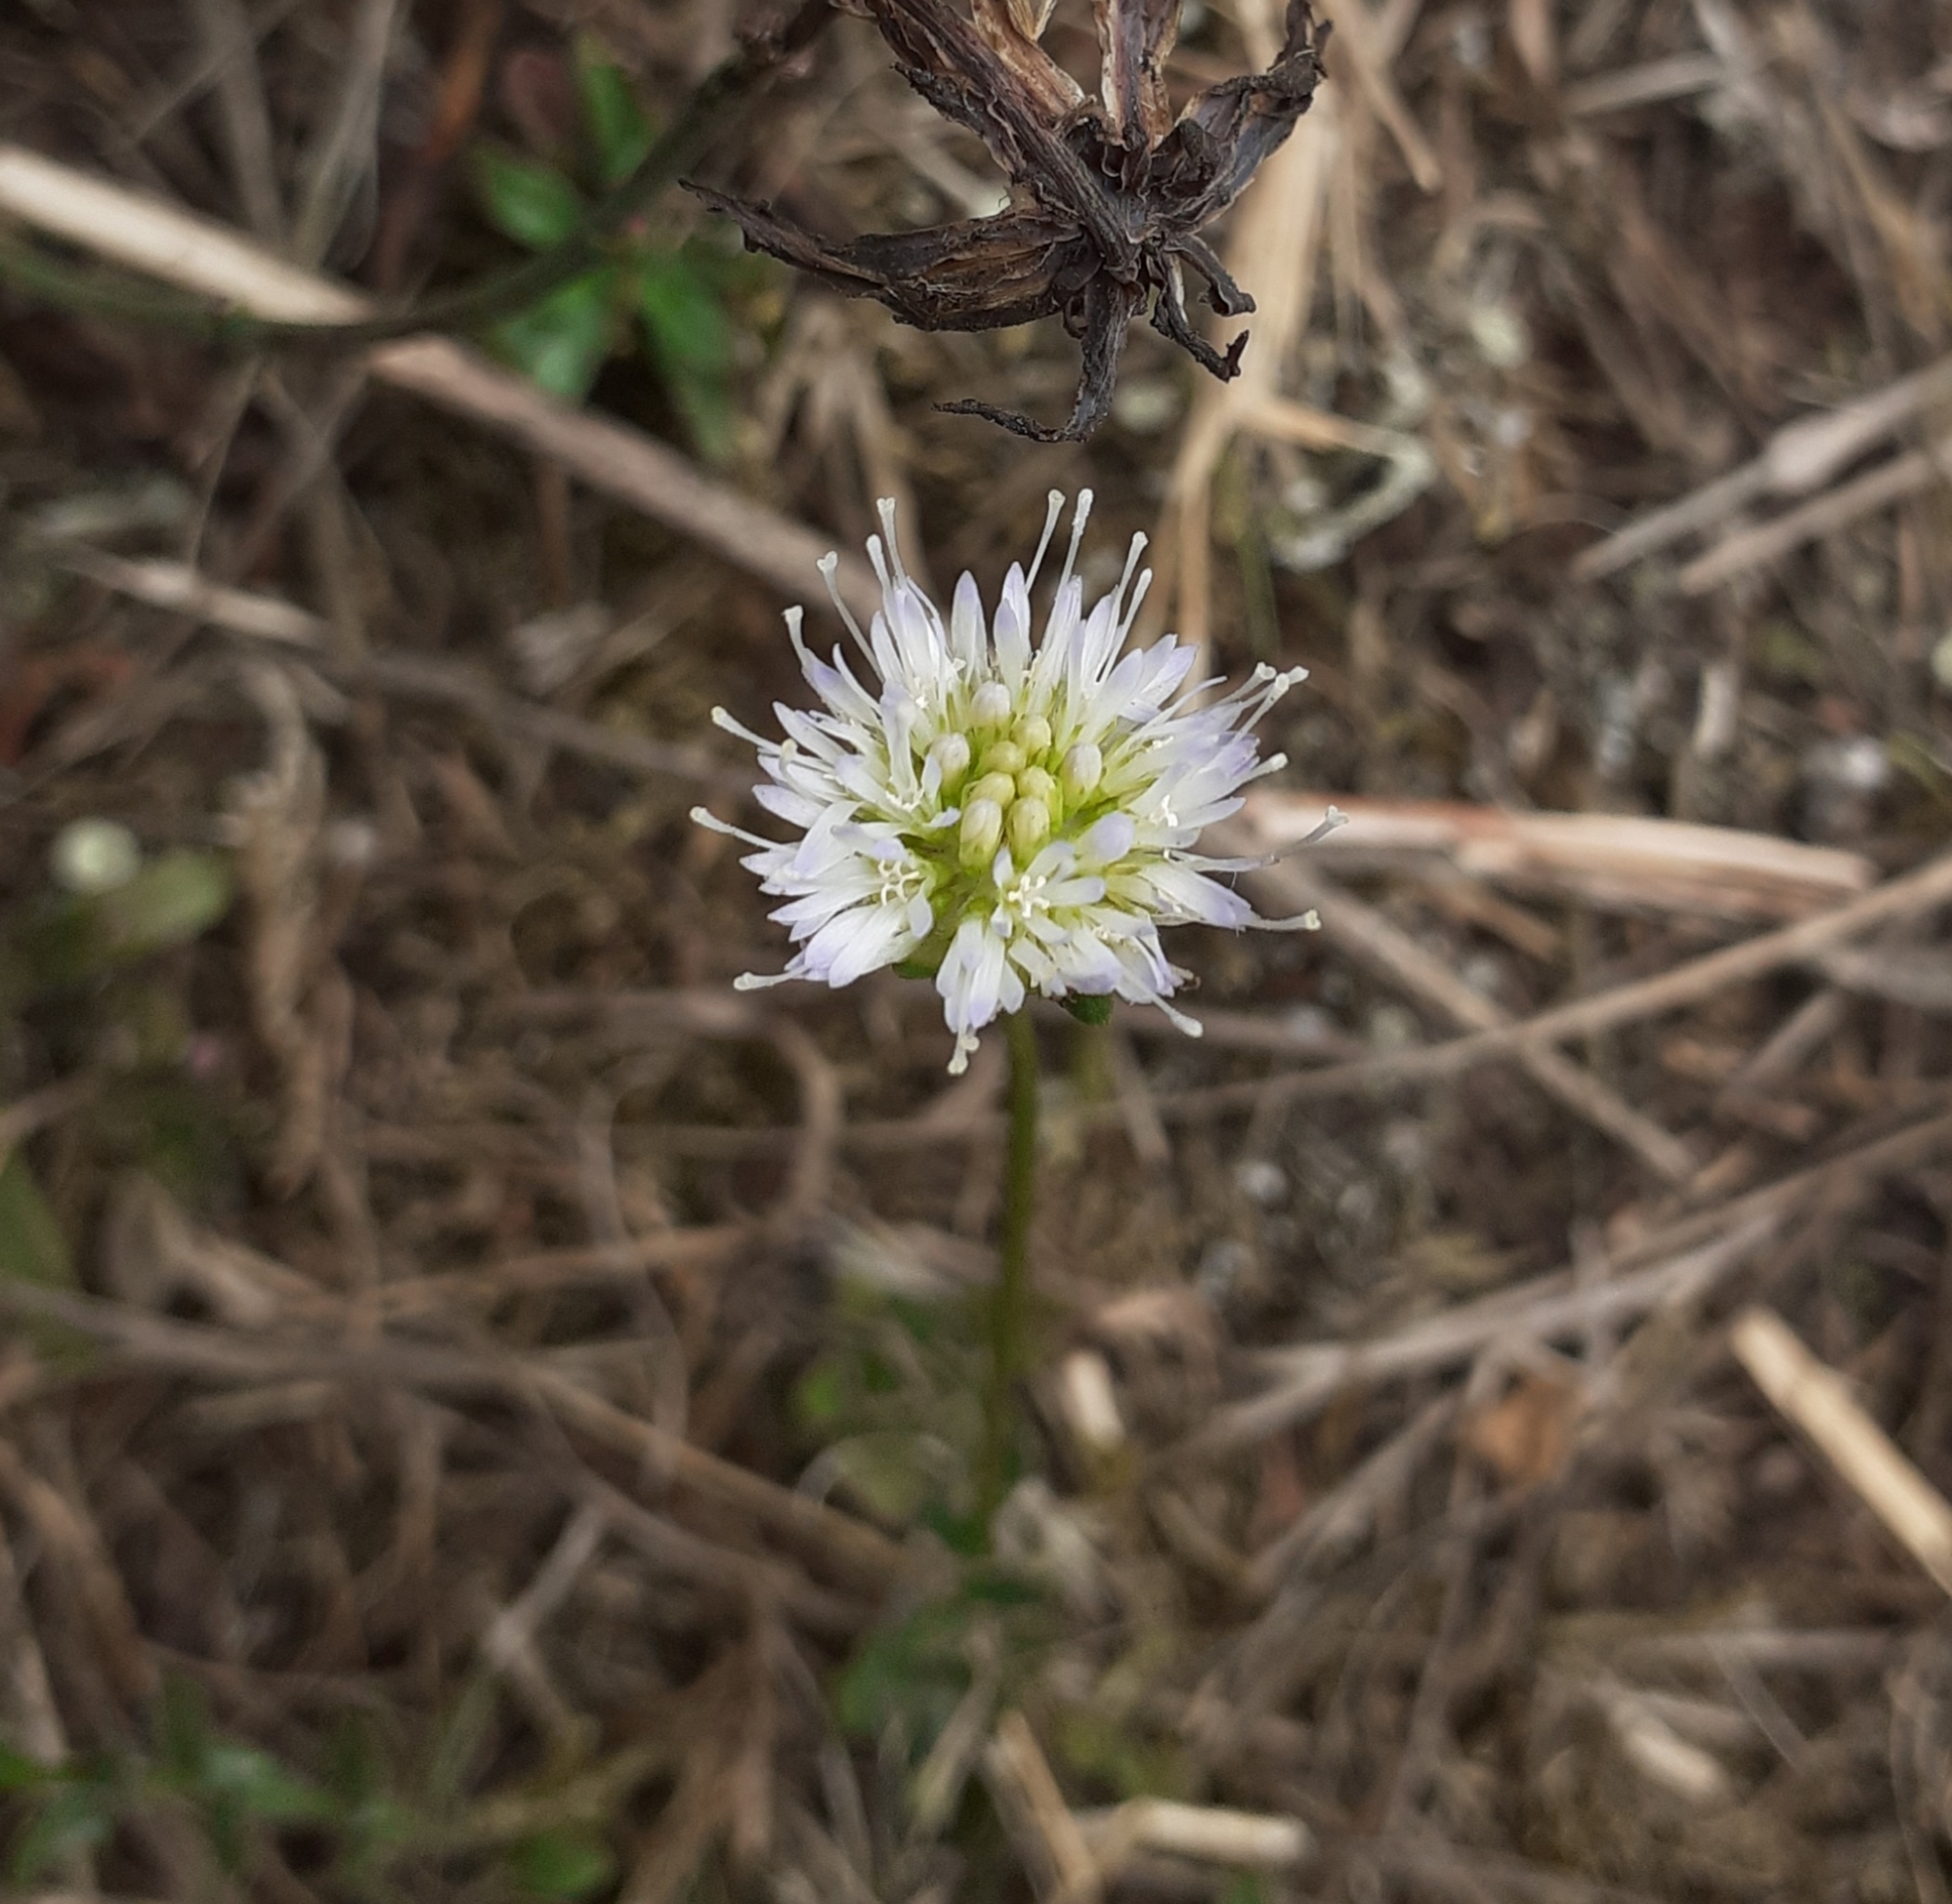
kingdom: Plantae
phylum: Tracheophyta
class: Magnoliopsida
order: Asterales
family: Campanulaceae
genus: Jasione
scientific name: Jasione montana
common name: Sheep's-bit
